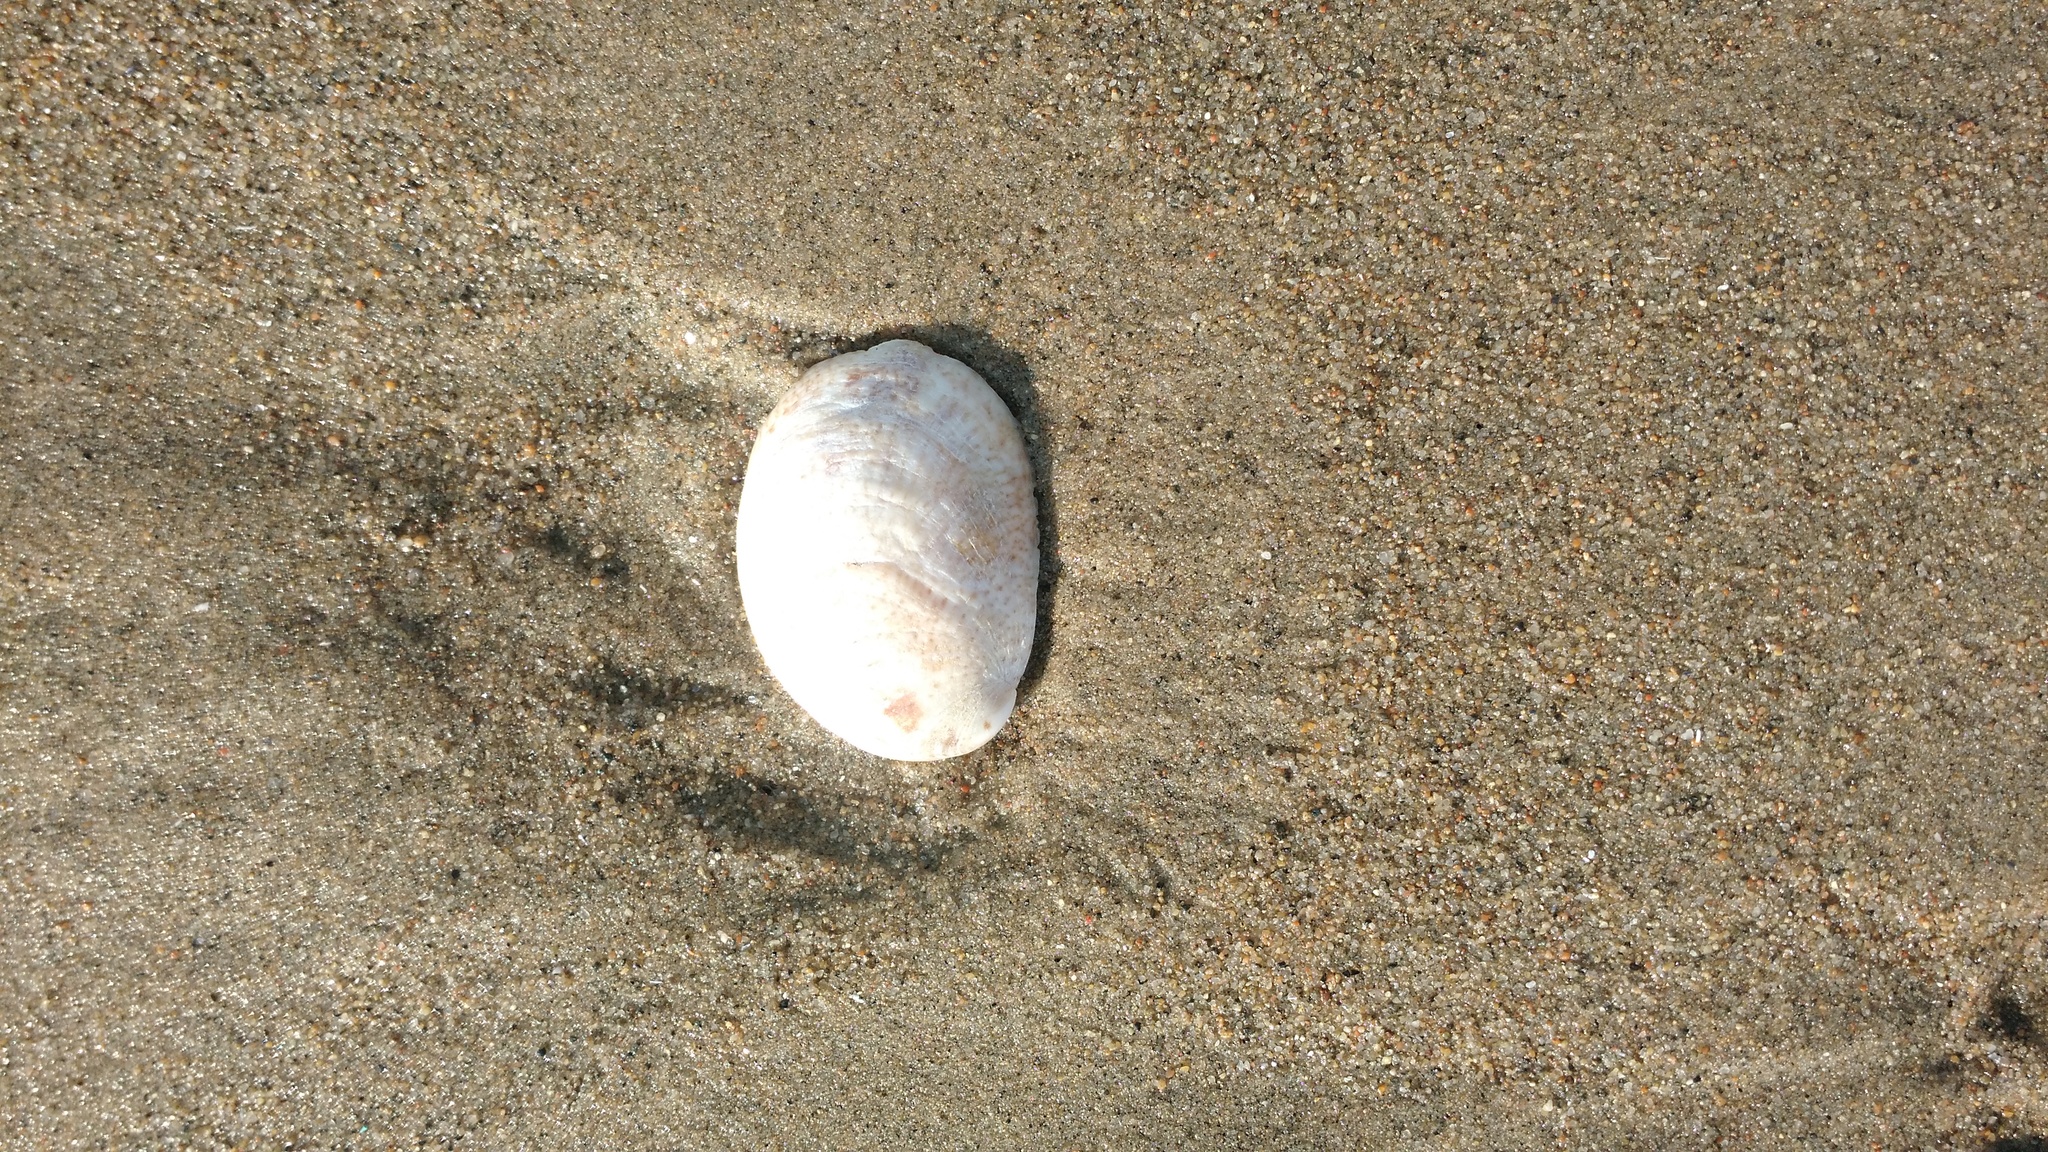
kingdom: Animalia
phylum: Mollusca
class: Gastropoda
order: Littorinimorpha
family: Calyptraeidae
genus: Crepidula
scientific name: Crepidula fornicata
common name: Slipper limpet
